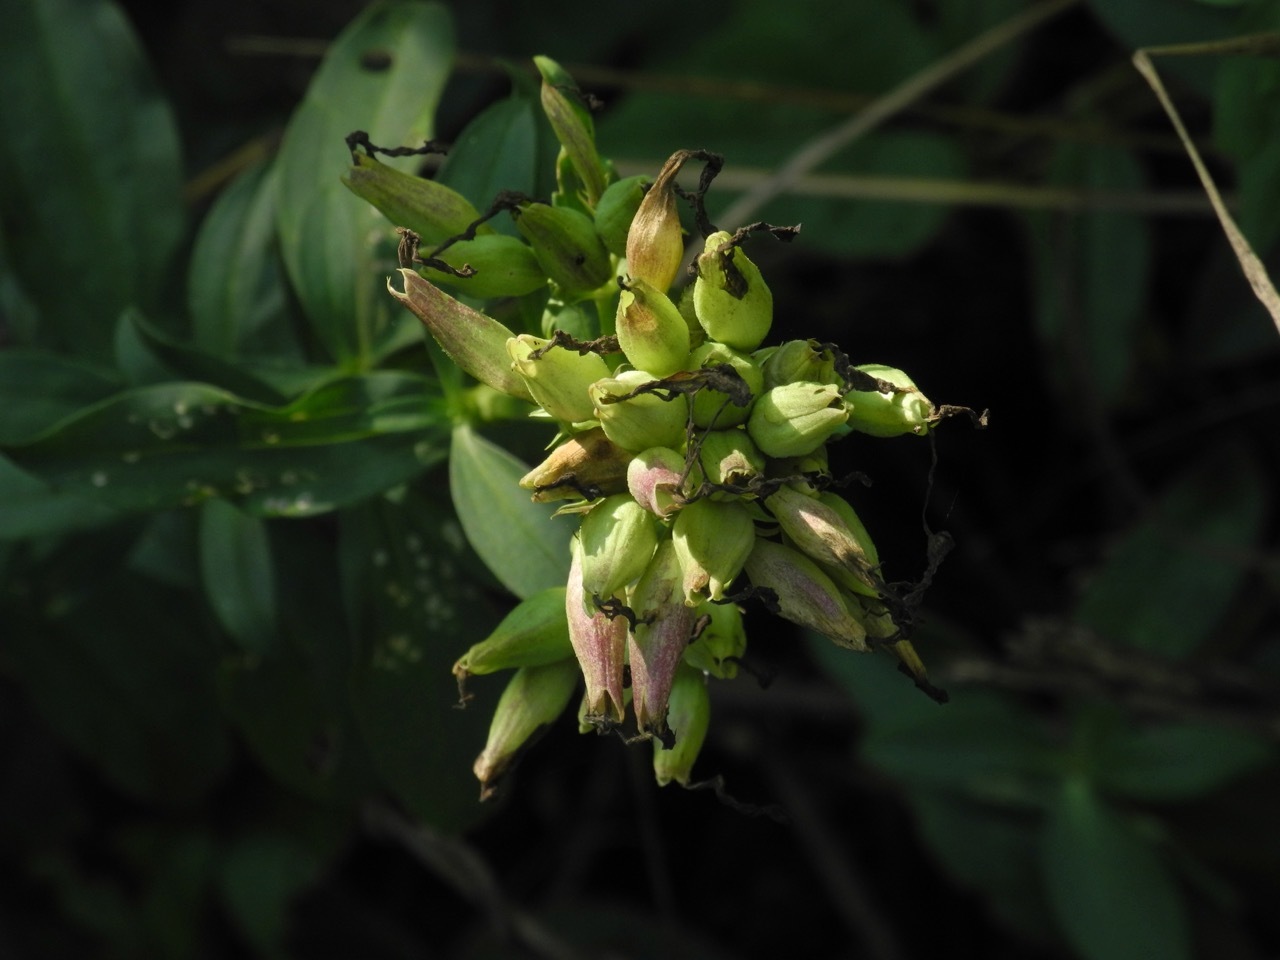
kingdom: Plantae
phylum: Tracheophyta
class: Magnoliopsida
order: Caryophyllales
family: Caryophyllaceae
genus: Saponaria
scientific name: Saponaria officinalis
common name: Soapwort
